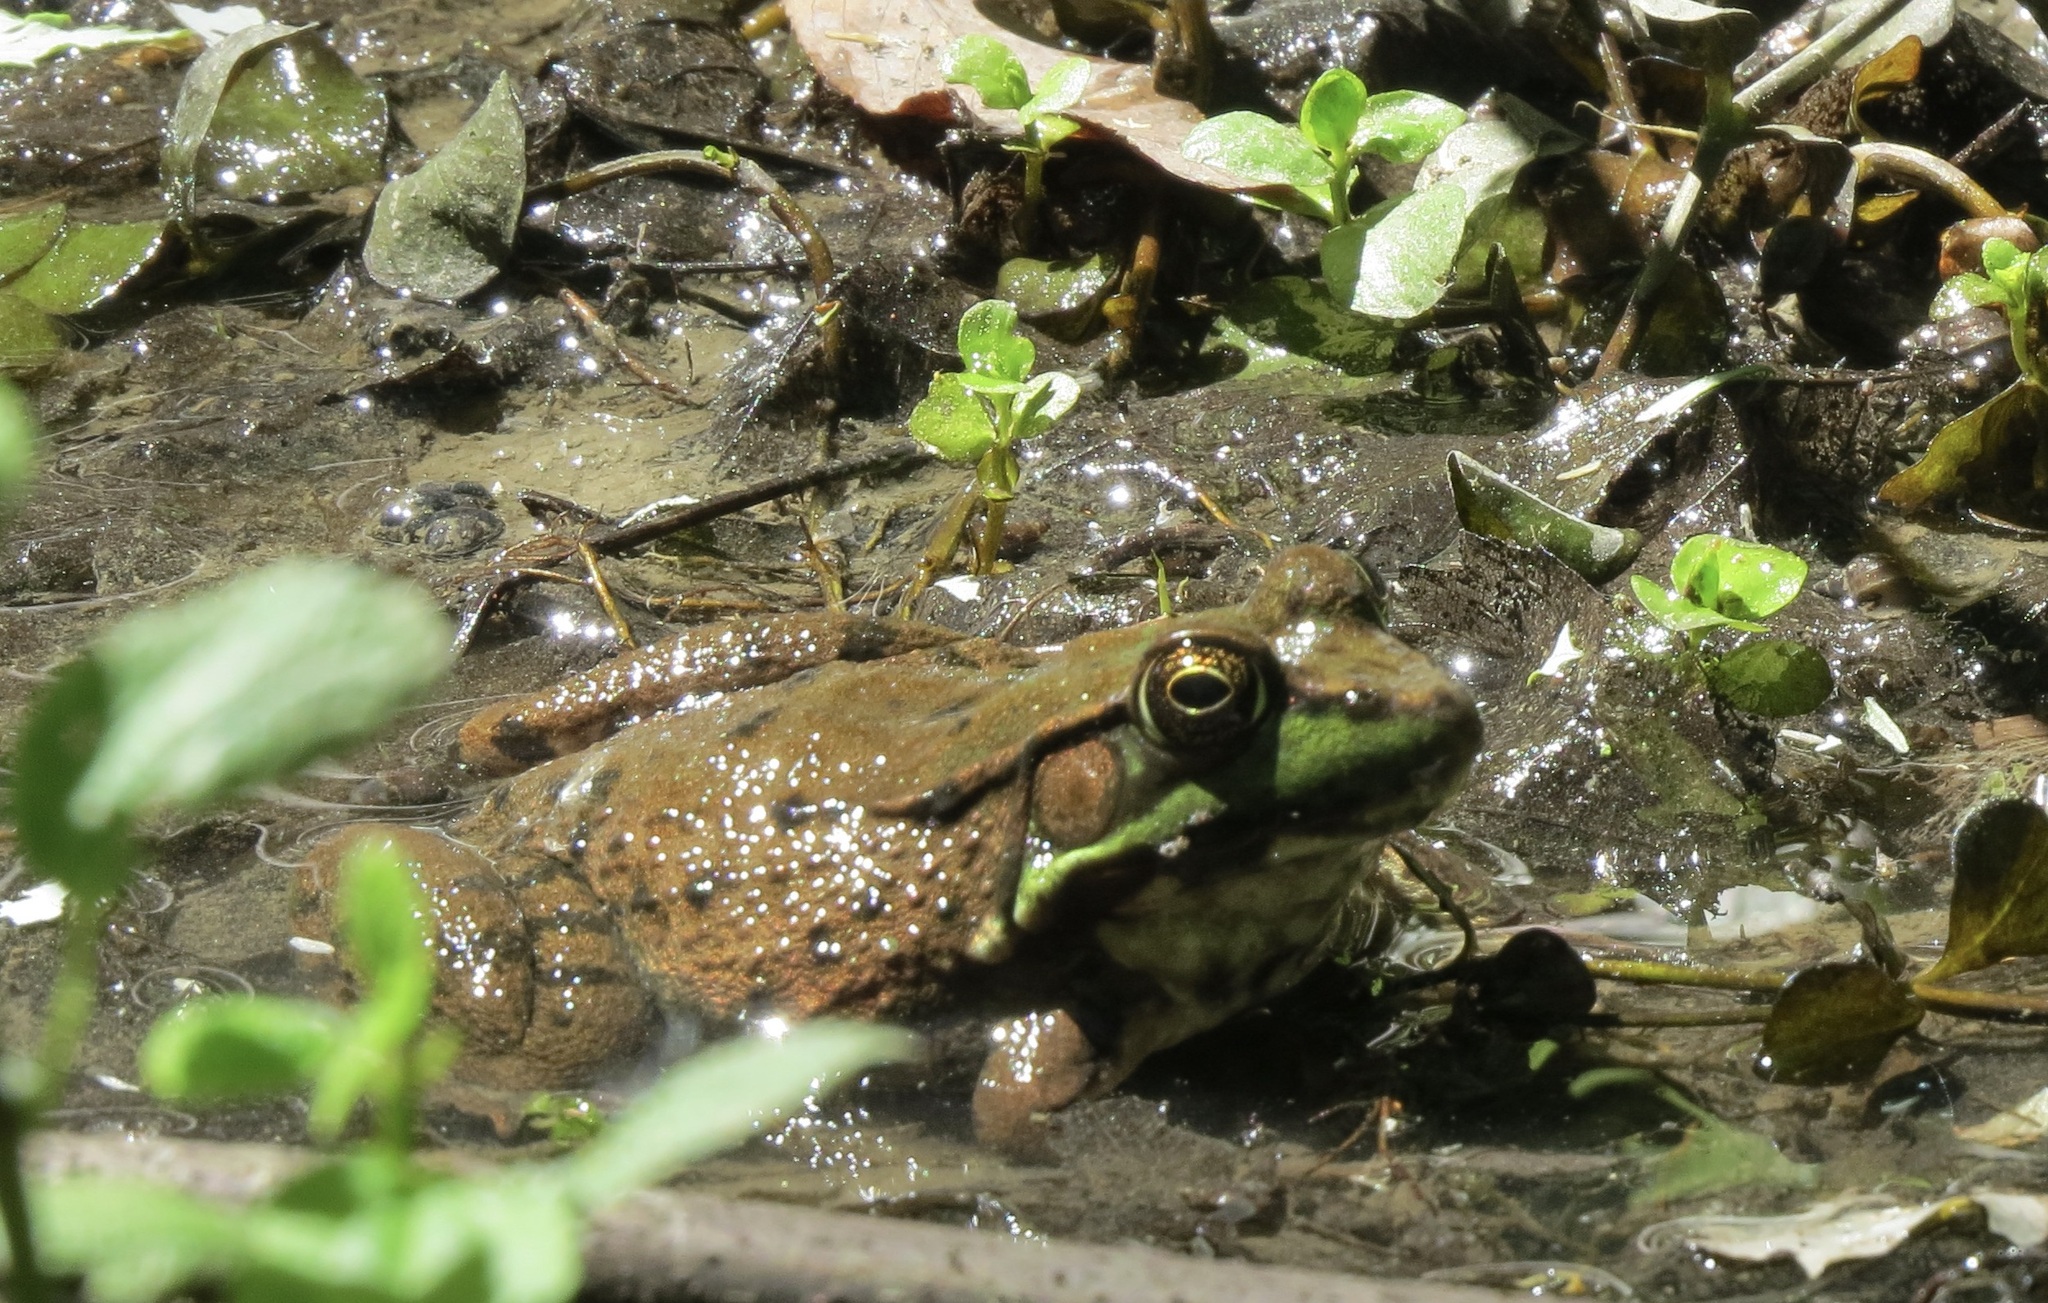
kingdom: Animalia
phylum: Chordata
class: Amphibia
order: Anura
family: Ranidae
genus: Lithobates
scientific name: Lithobates clamitans
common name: Green frog
